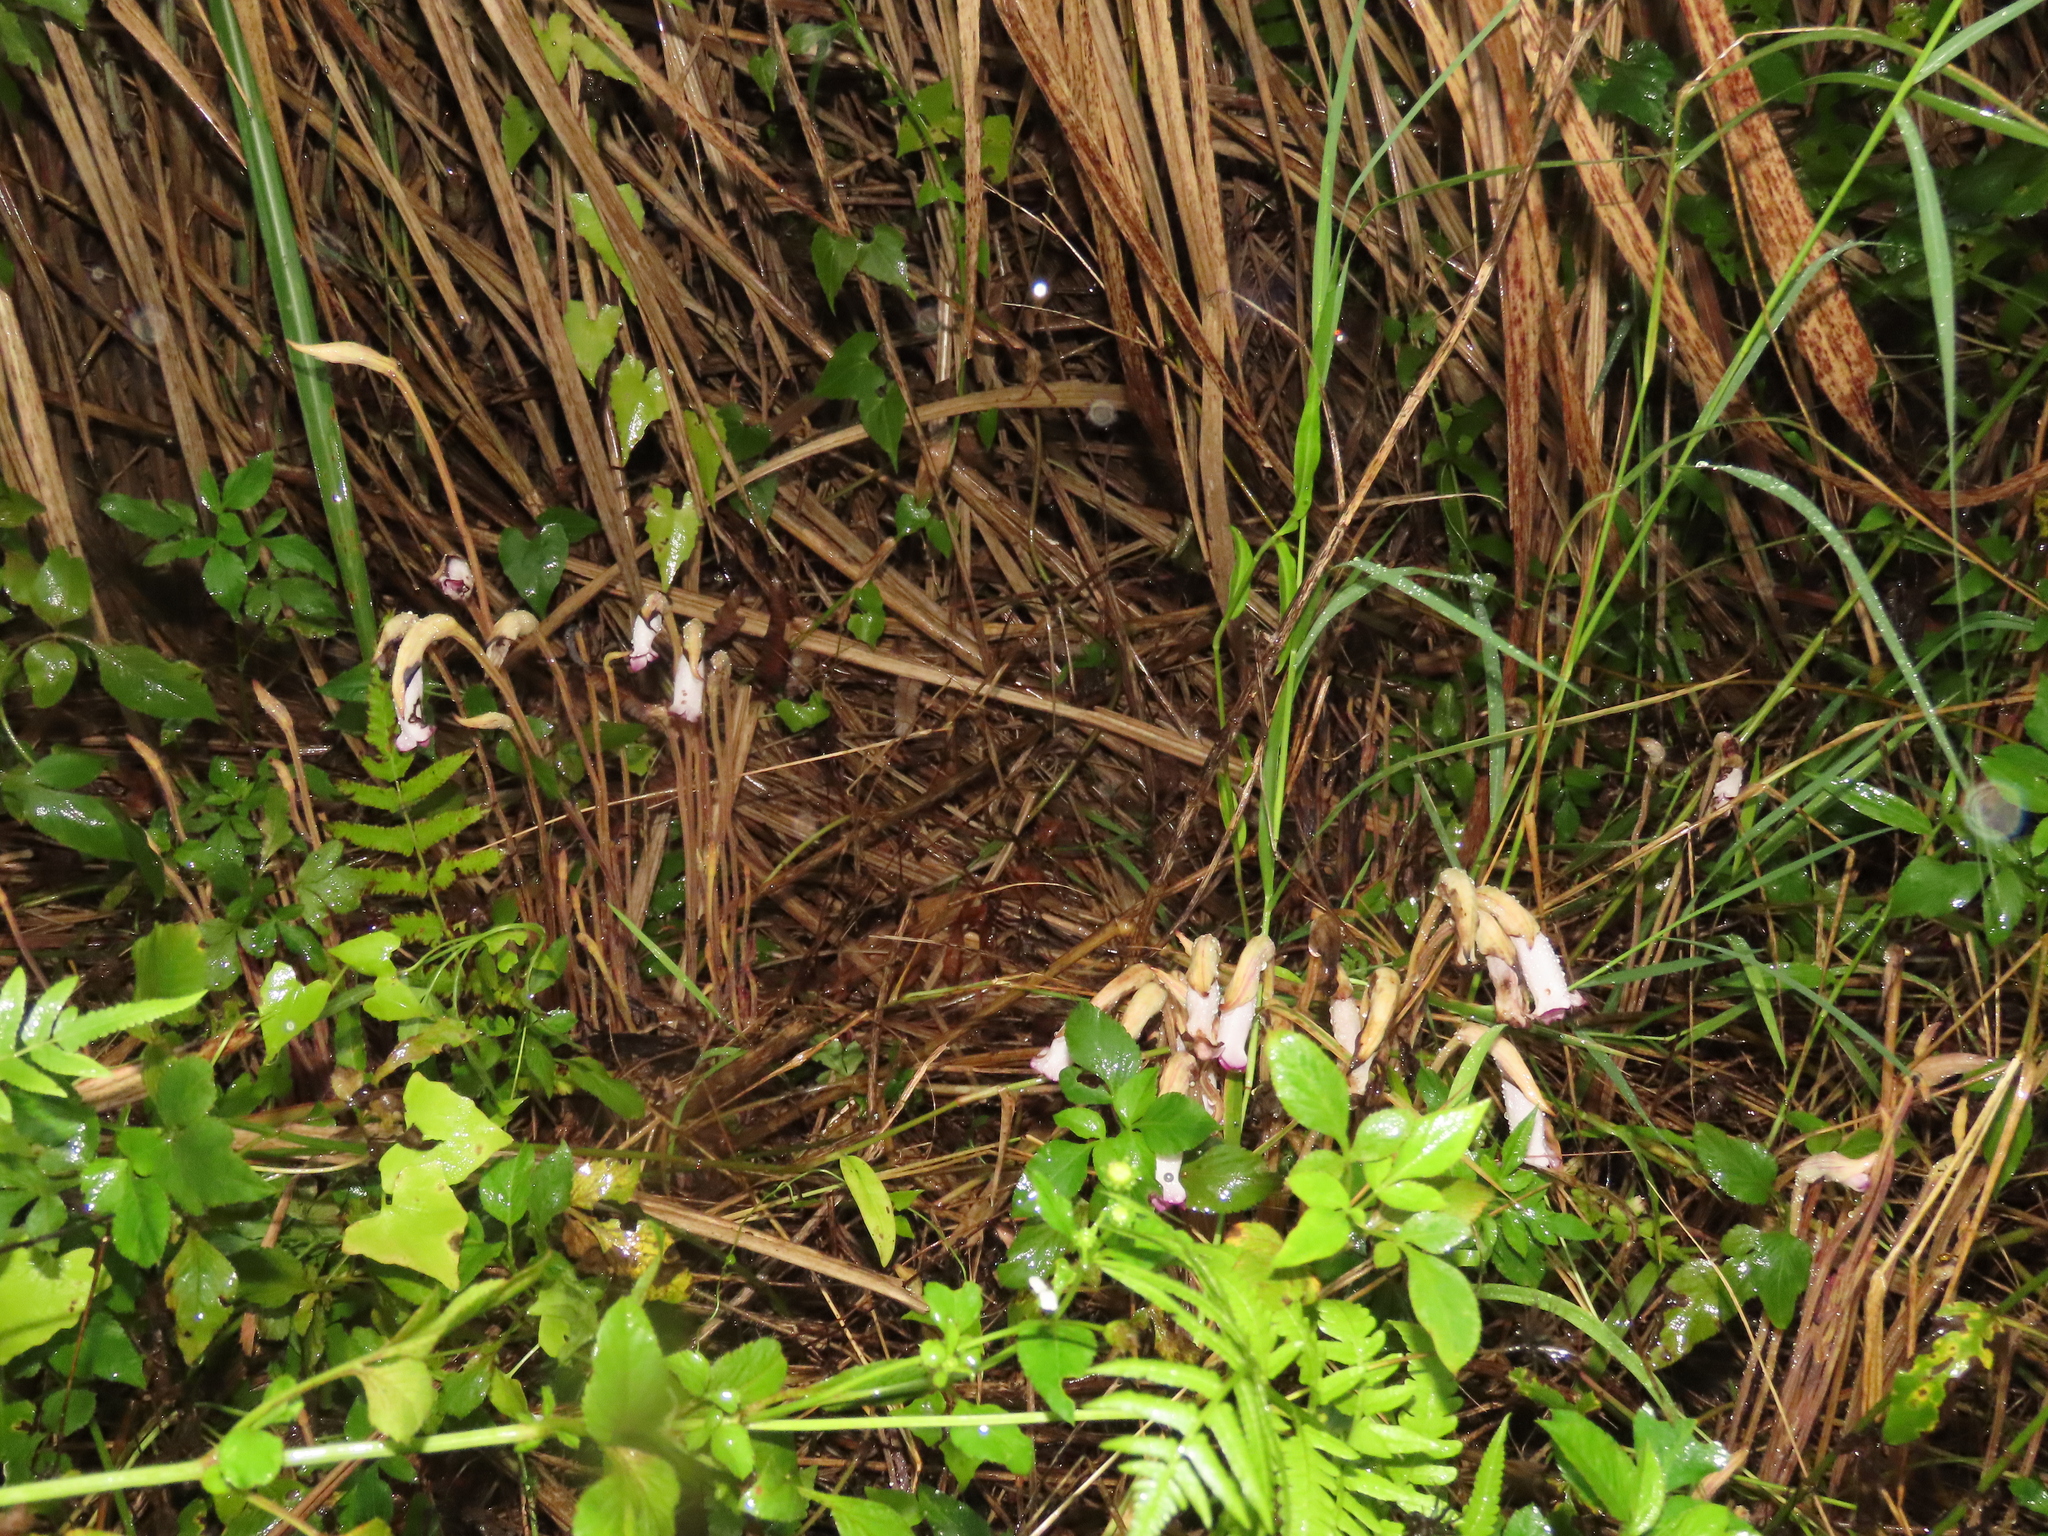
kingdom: Plantae
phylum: Tracheophyta
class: Magnoliopsida
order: Lamiales
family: Orobanchaceae
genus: Aeginetia
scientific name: Aeginetia indica
